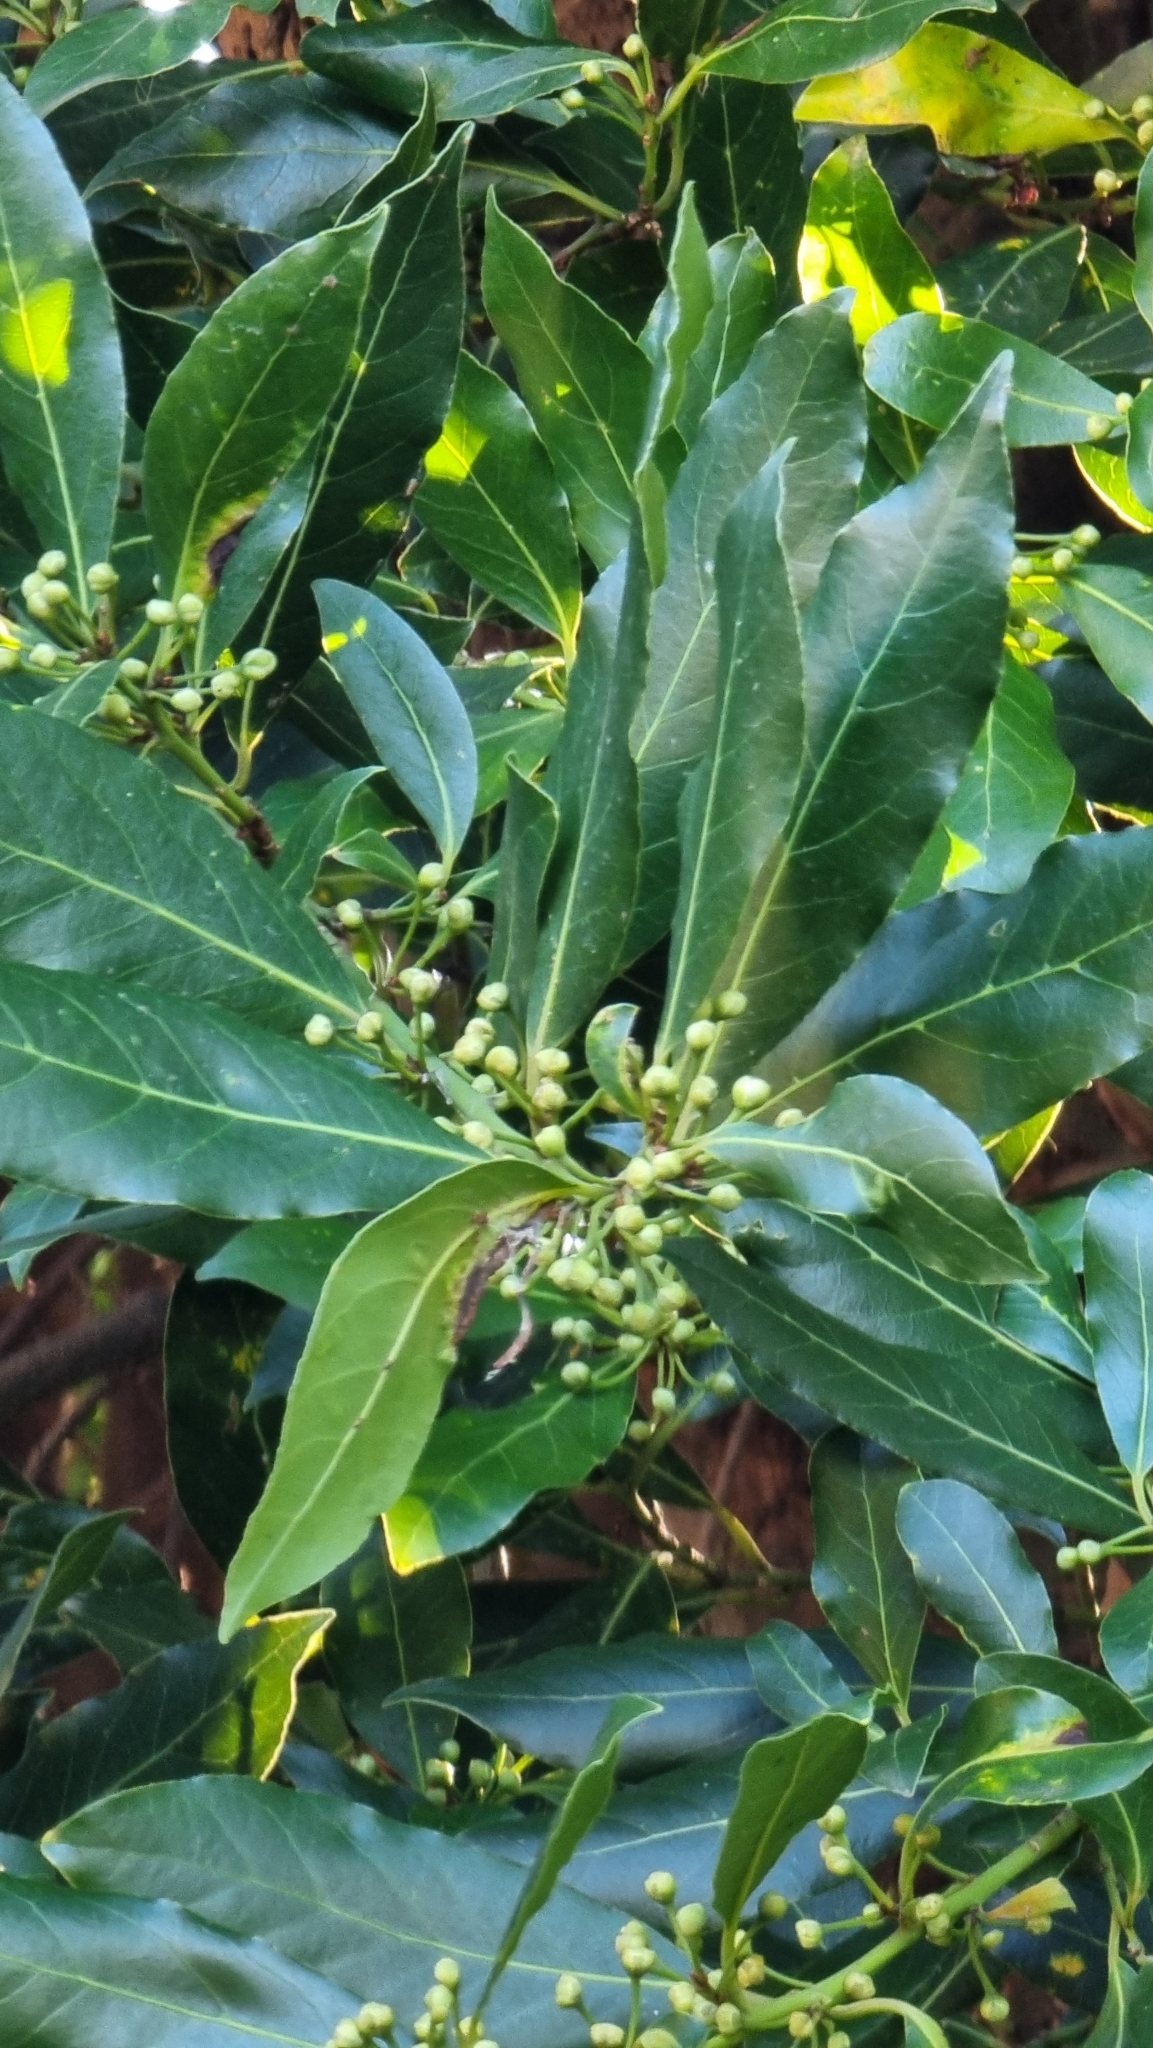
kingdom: Plantae
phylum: Tracheophyta
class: Magnoliopsida
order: Laurales
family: Lauraceae
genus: Laurus
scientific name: Laurus nobilis
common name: Bay
